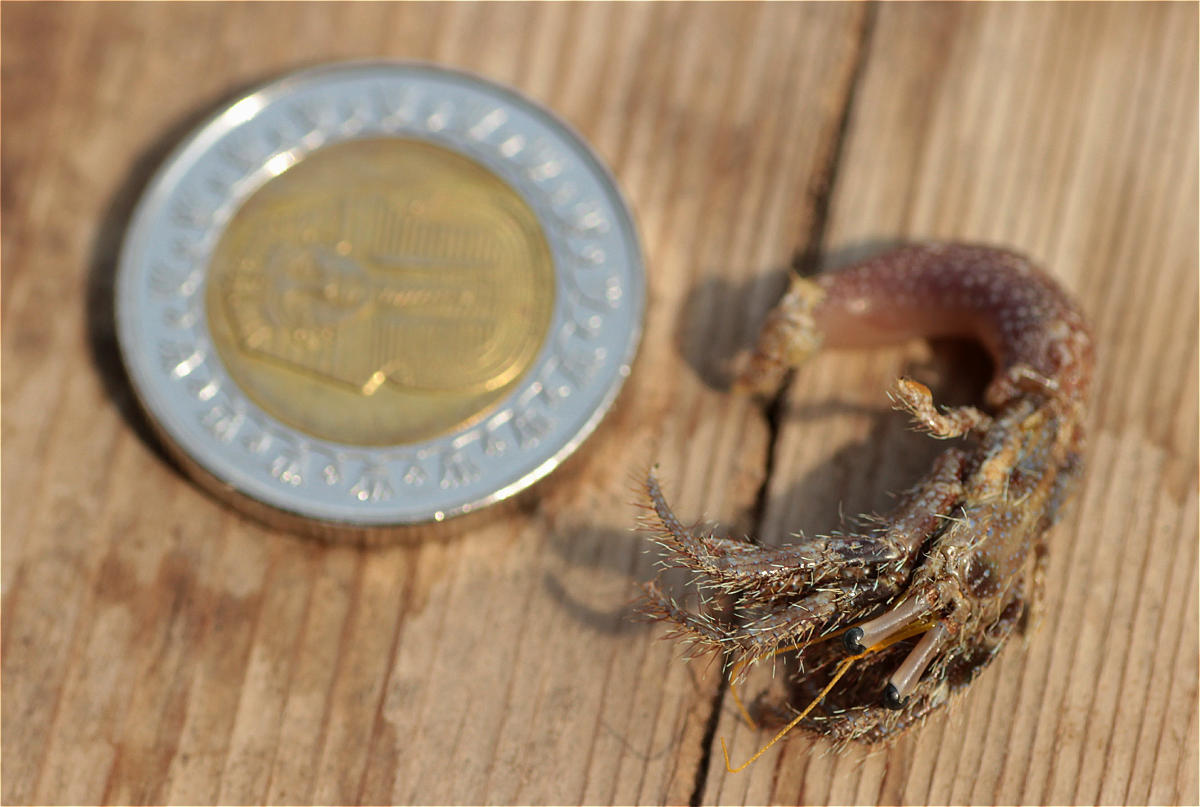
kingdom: Animalia
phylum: Arthropoda
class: Malacostraca
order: Decapoda
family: Diogenidae
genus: Dardanus
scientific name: Dardanus lagopodes
